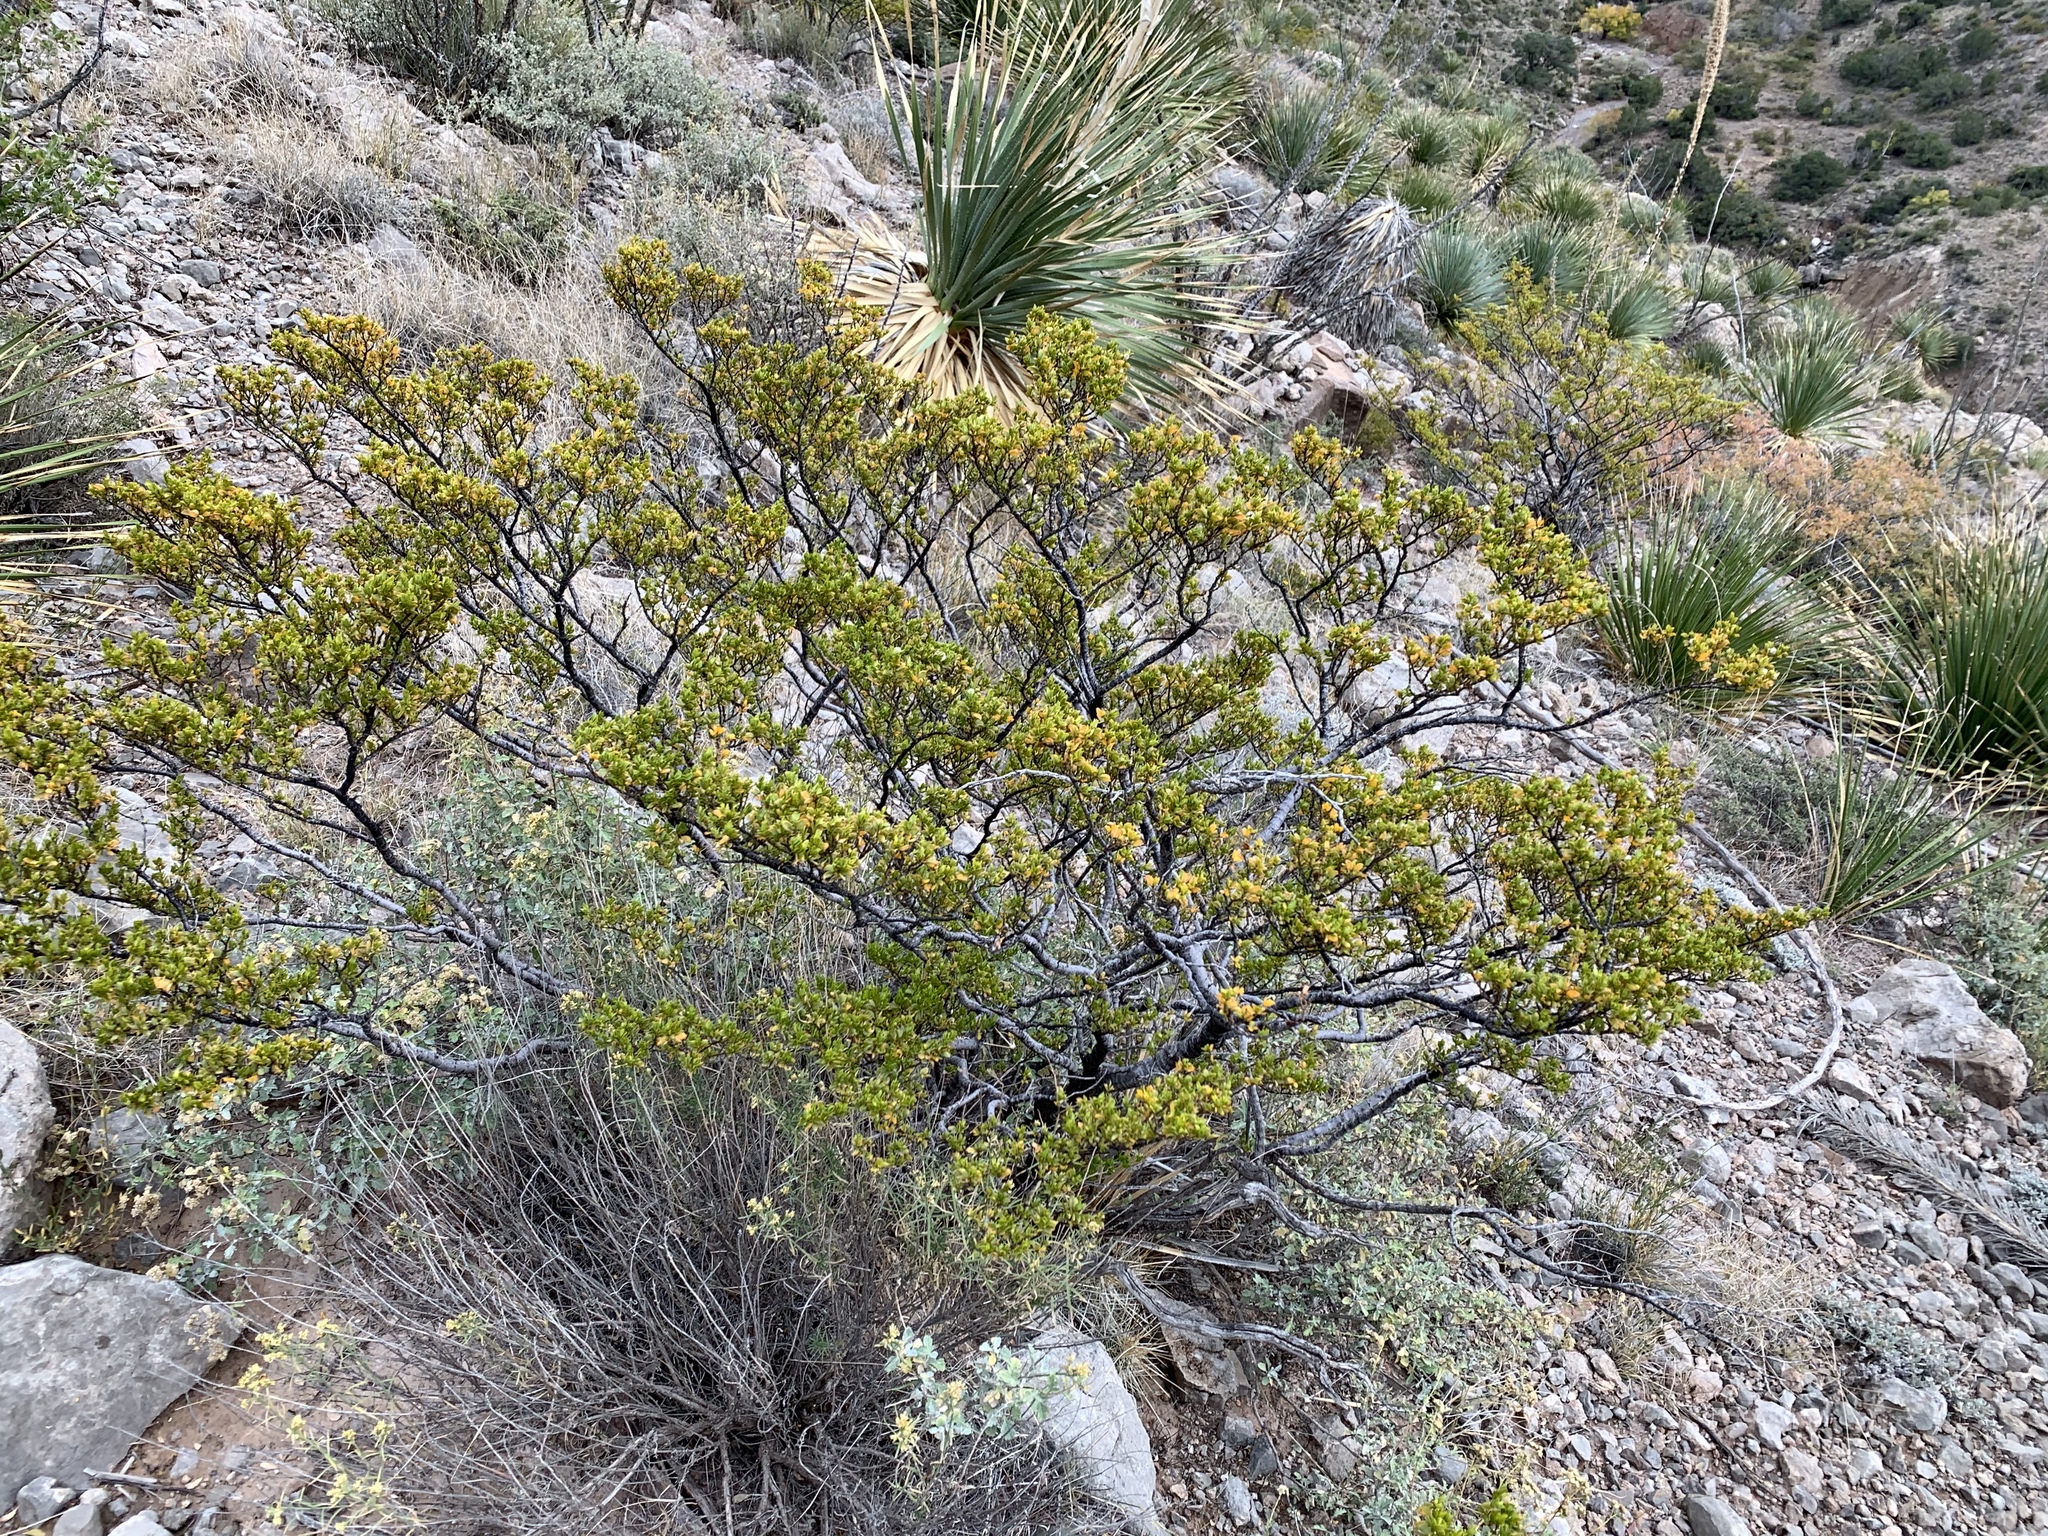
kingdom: Plantae
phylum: Tracheophyta
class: Magnoliopsida
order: Zygophyllales
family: Zygophyllaceae
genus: Larrea
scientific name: Larrea tridentata
